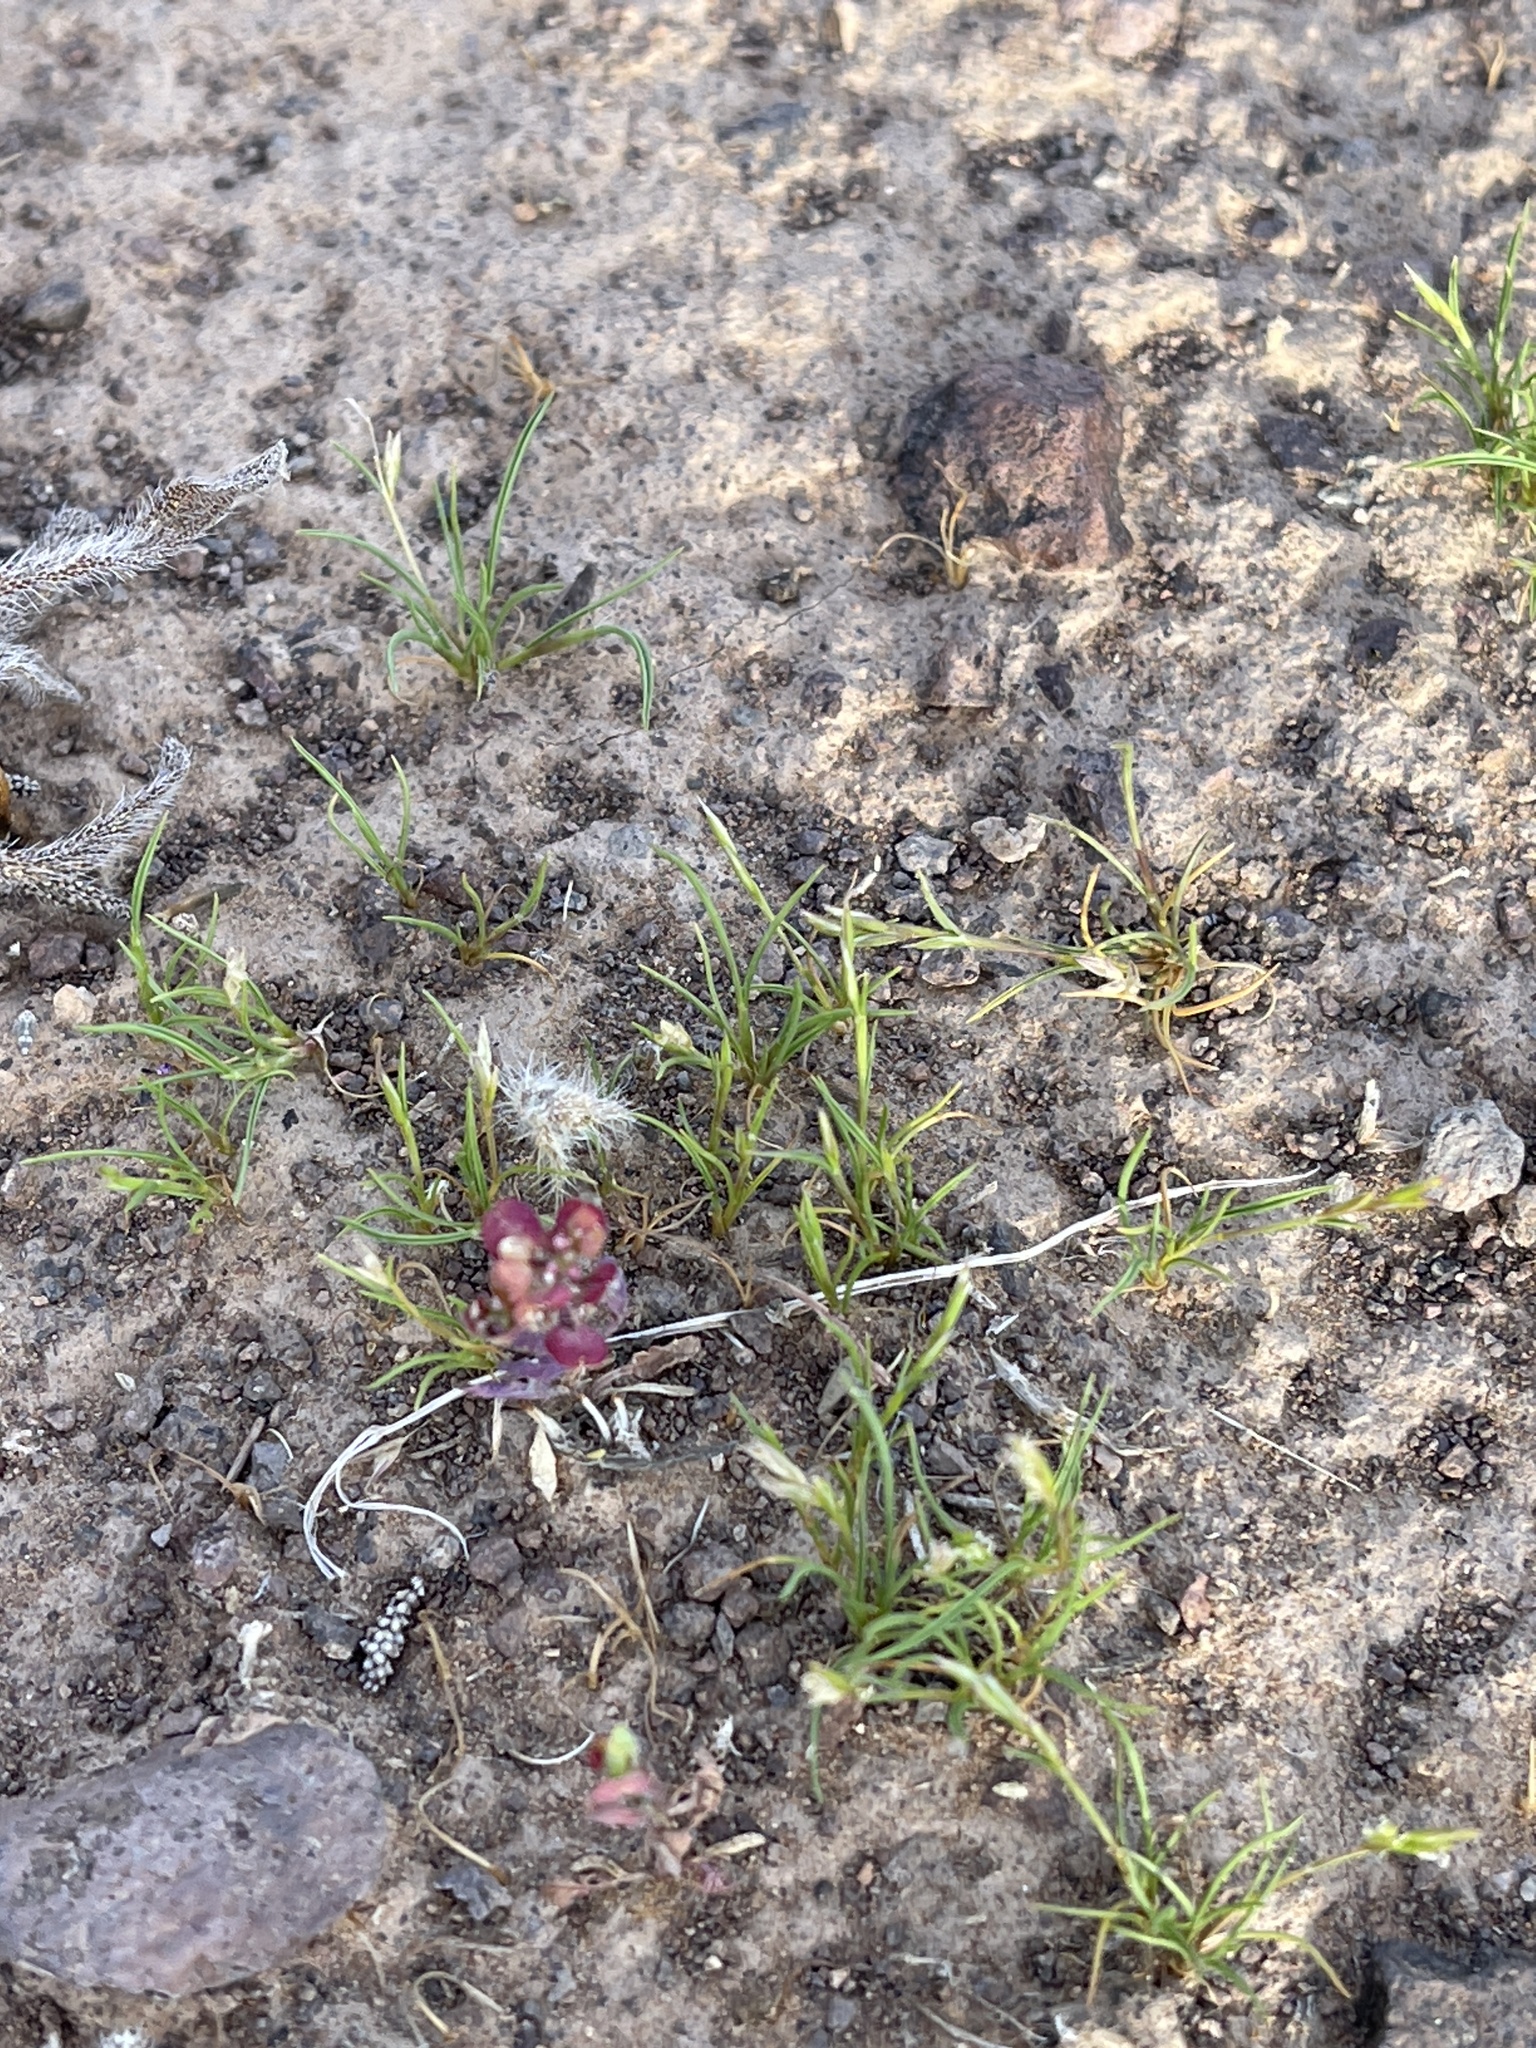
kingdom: Plantae
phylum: Tracheophyta
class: Magnoliopsida
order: Brassicales
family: Brassicaceae
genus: Lepidium
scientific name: Lepidium lasiocarpum
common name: Hairy-pod pepperwort
